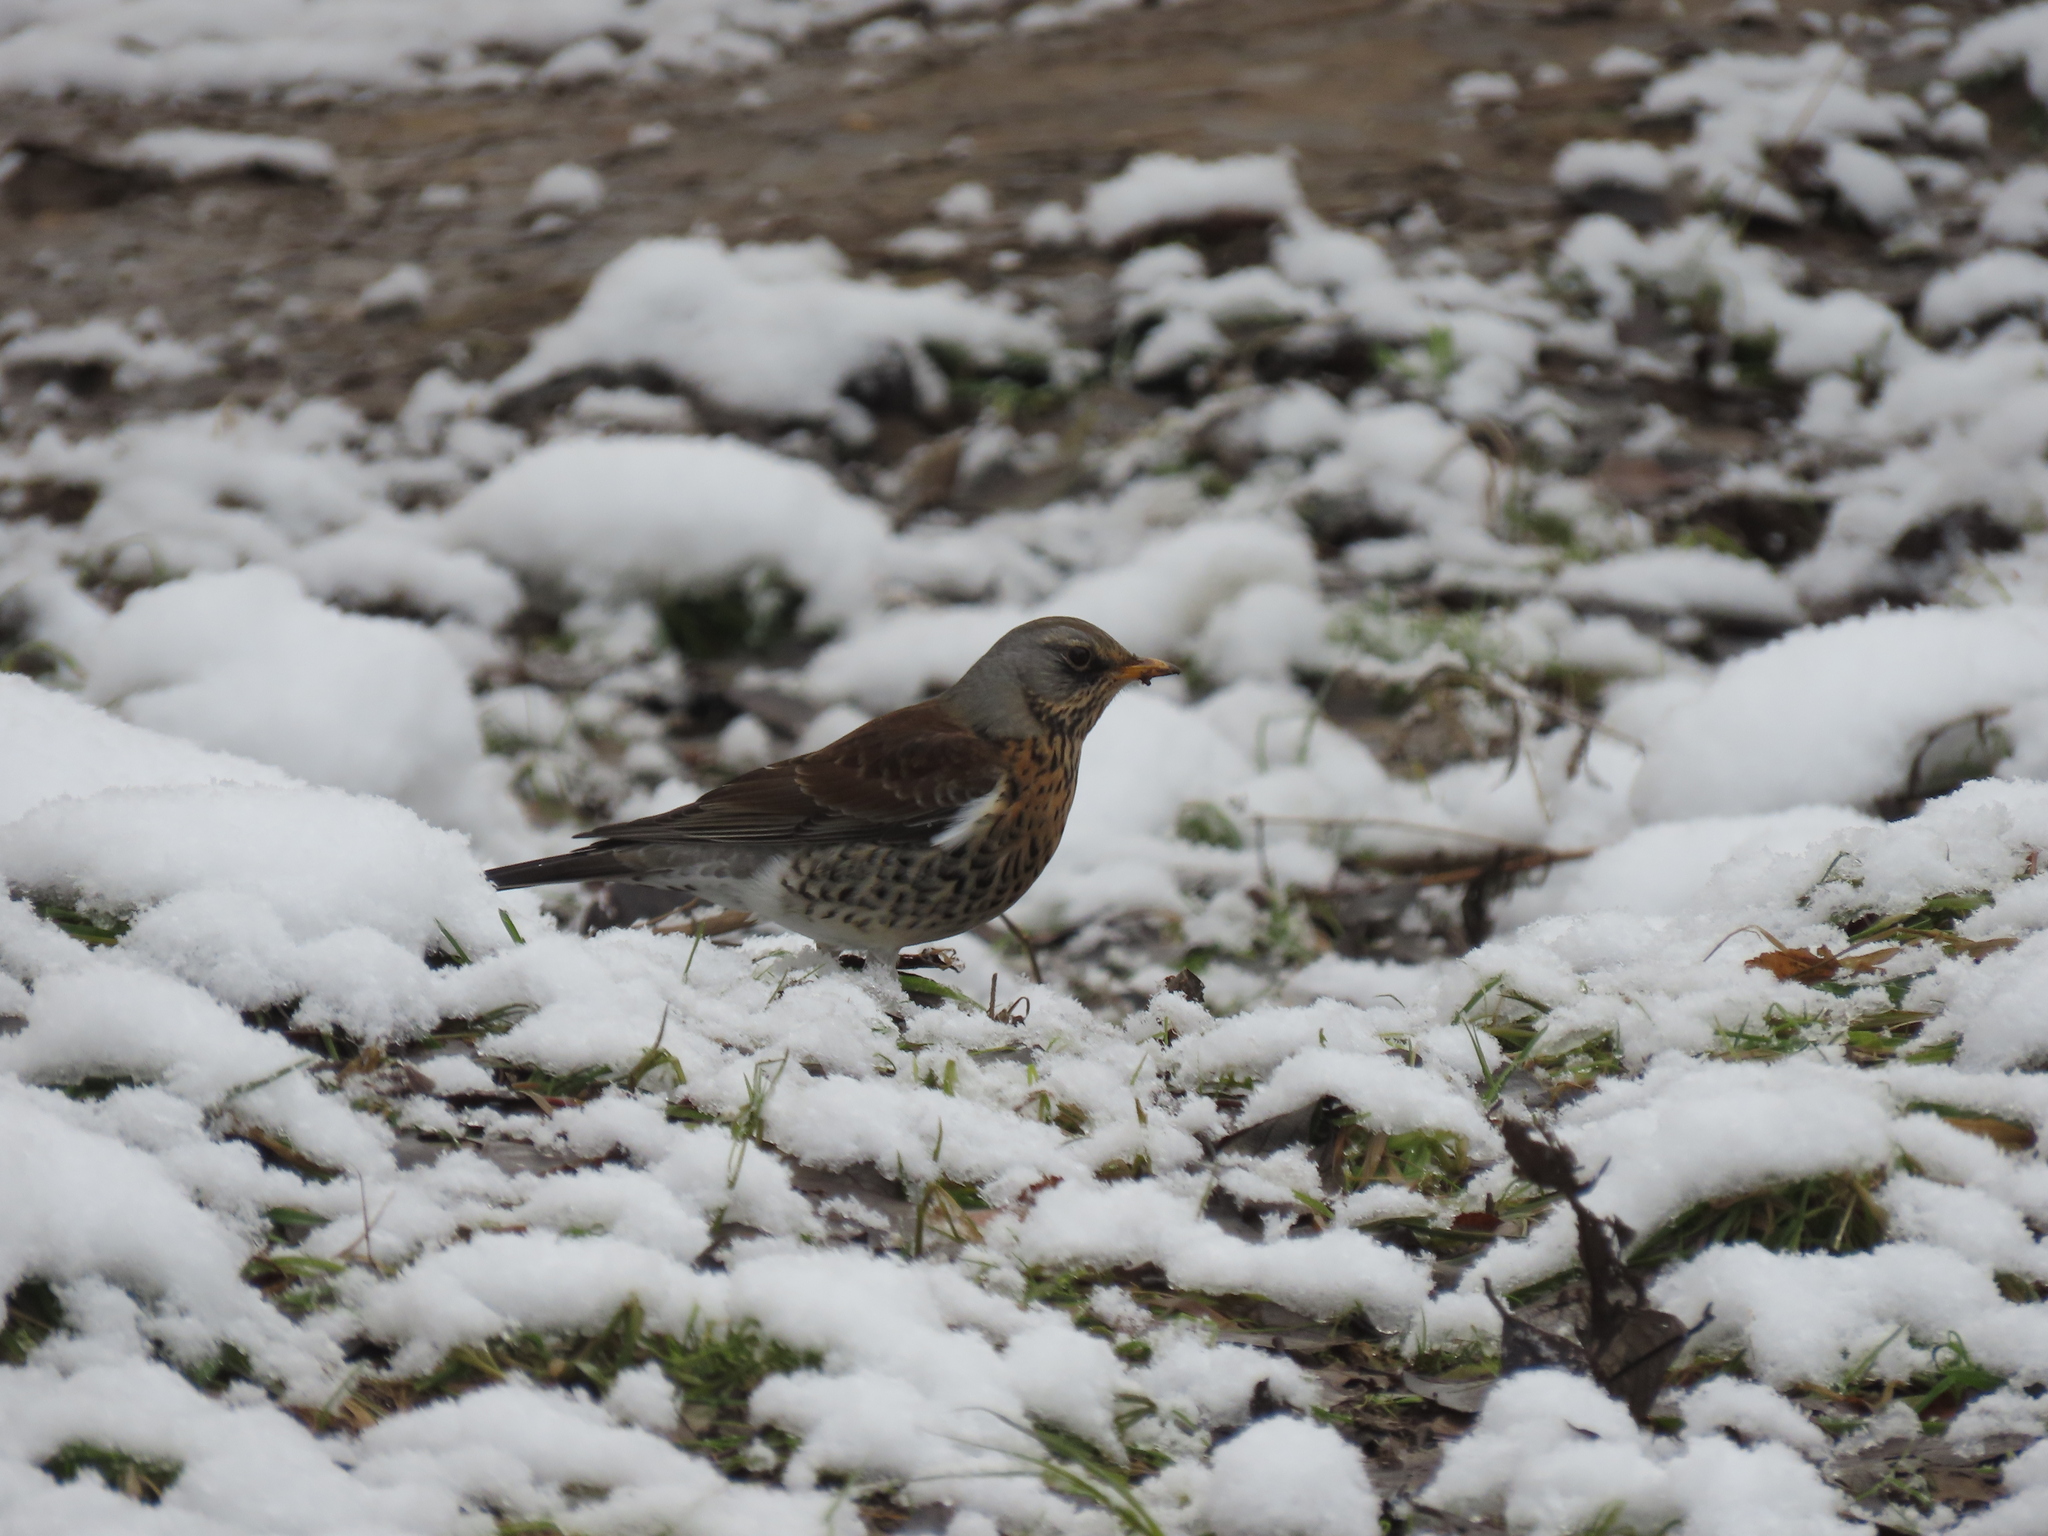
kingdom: Animalia
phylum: Chordata
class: Aves
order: Passeriformes
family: Turdidae
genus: Turdus
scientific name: Turdus pilaris
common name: Fieldfare
